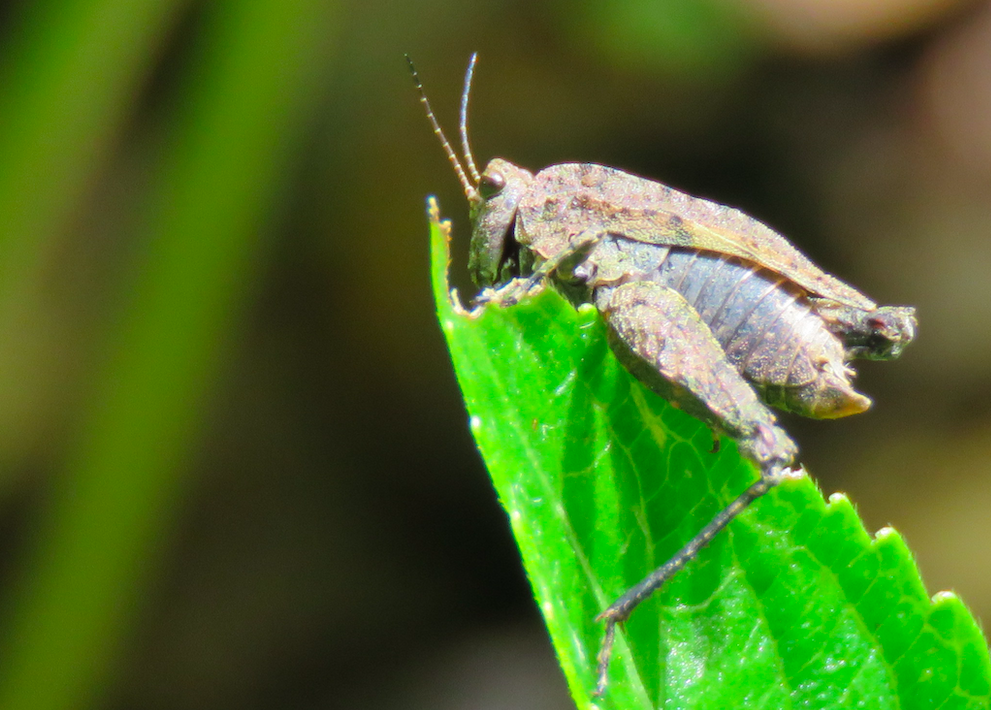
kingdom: Animalia
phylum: Arthropoda
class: Insecta
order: Orthoptera
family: Tetrigidae
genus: Tetrix
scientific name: Tetrix transsylvanica
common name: Transsylvanian wingless groundhopper
